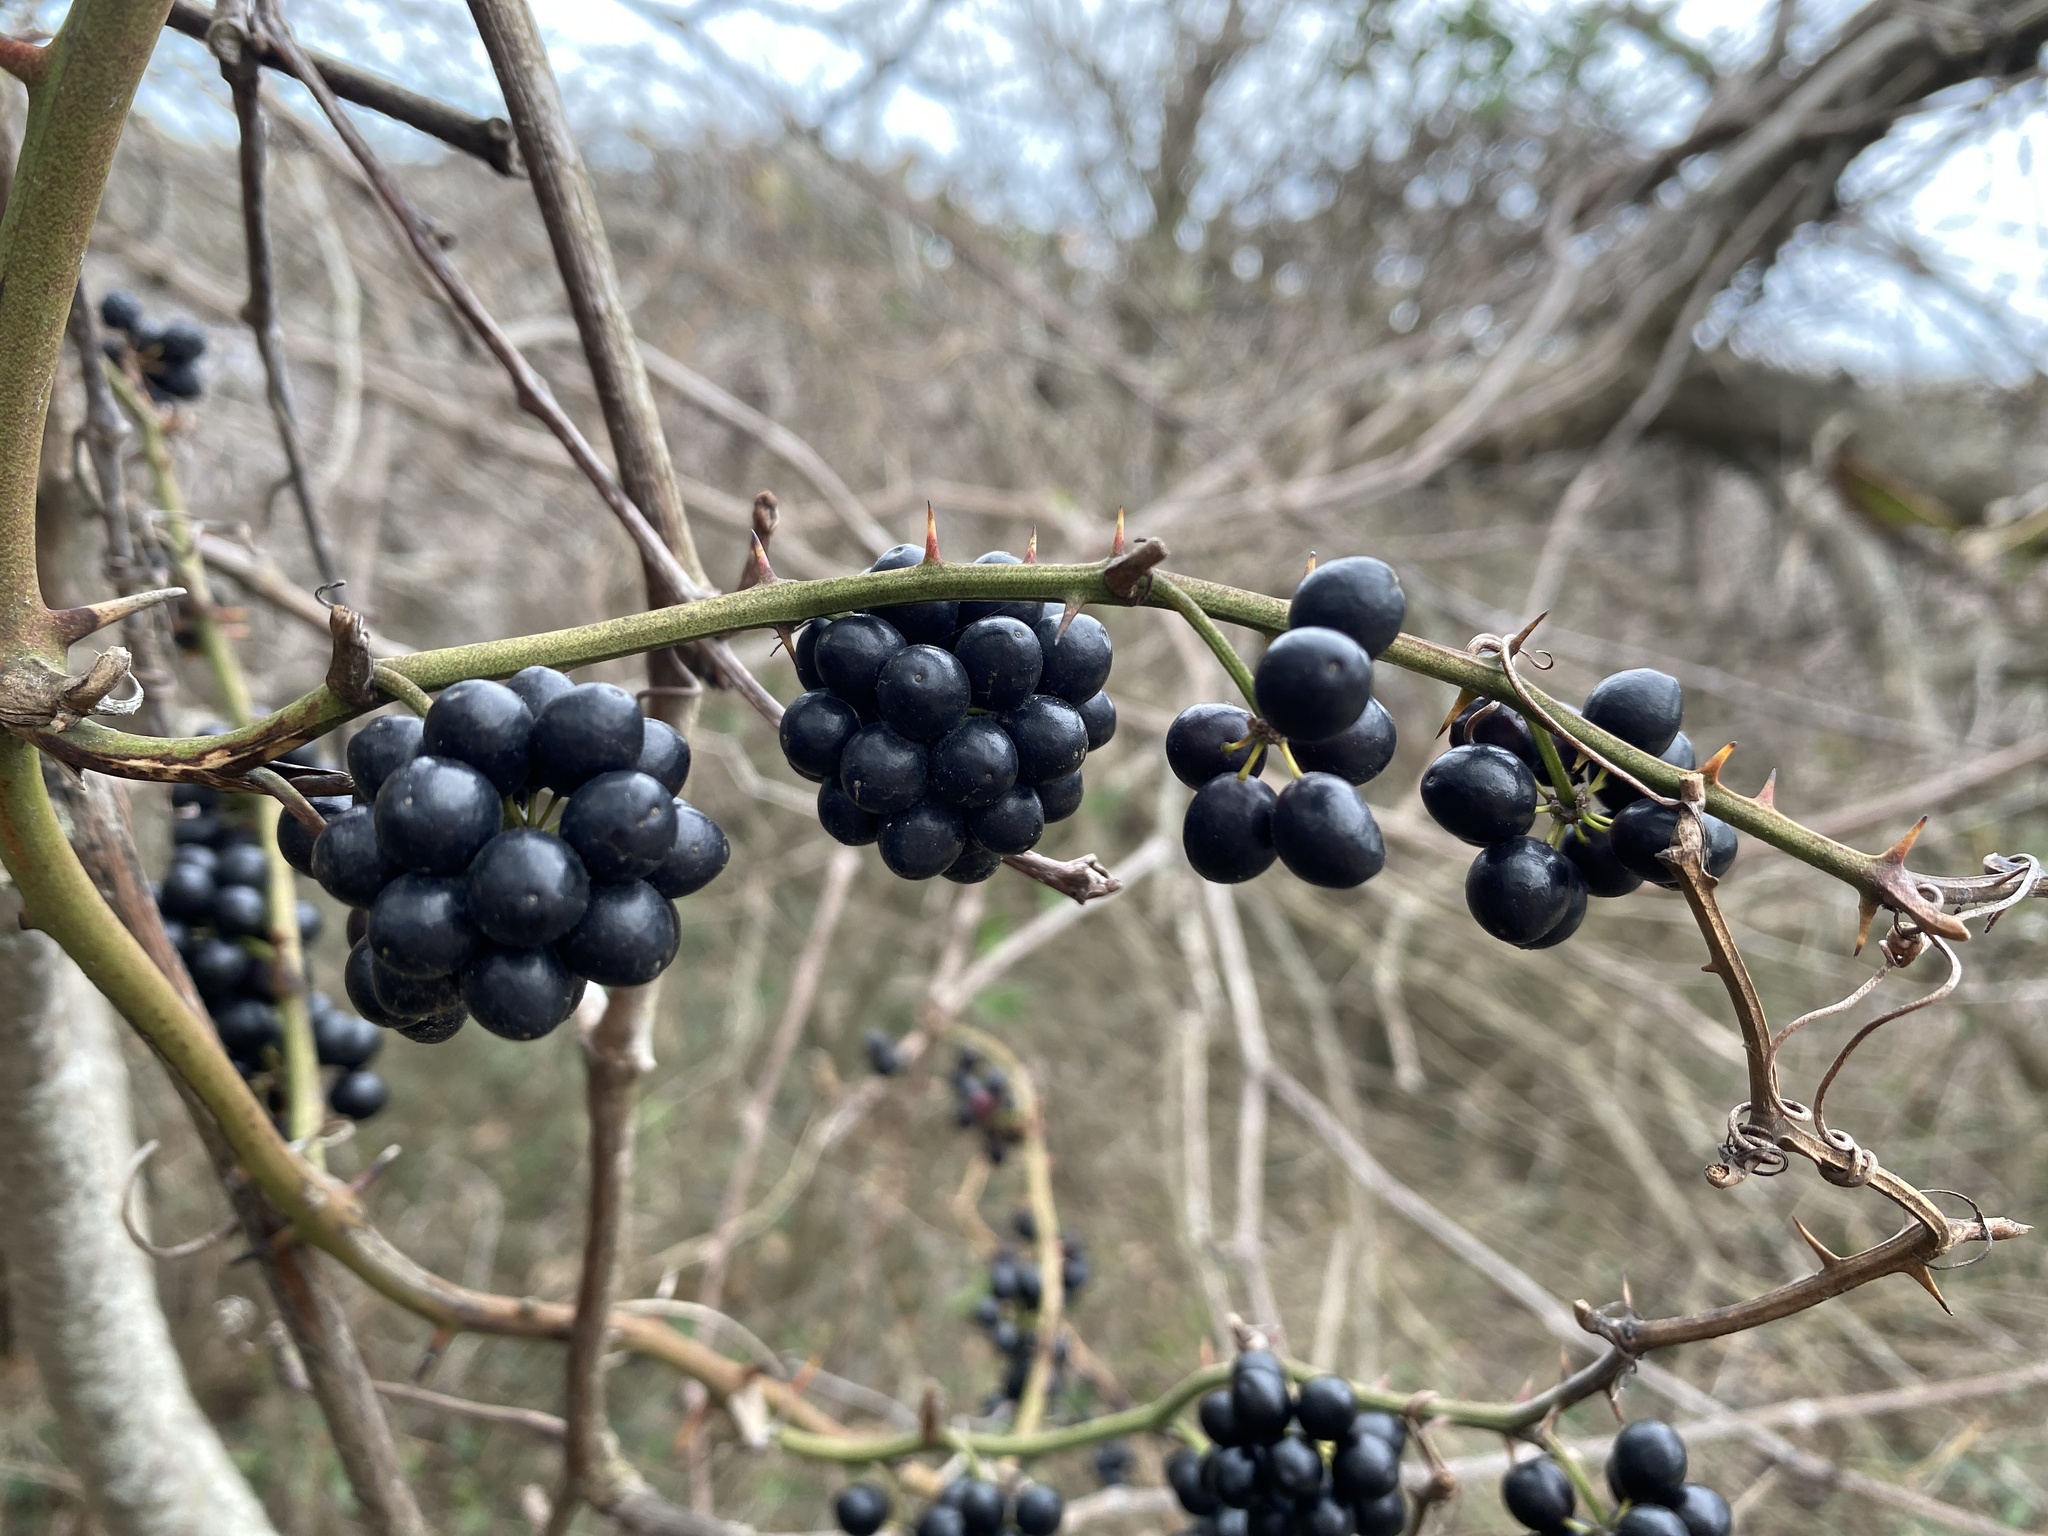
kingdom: Plantae
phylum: Tracheophyta
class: Liliopsida
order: Liliales
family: Smilacaceae
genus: Smilax
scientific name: Smilax bona-nox
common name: Catbrier
